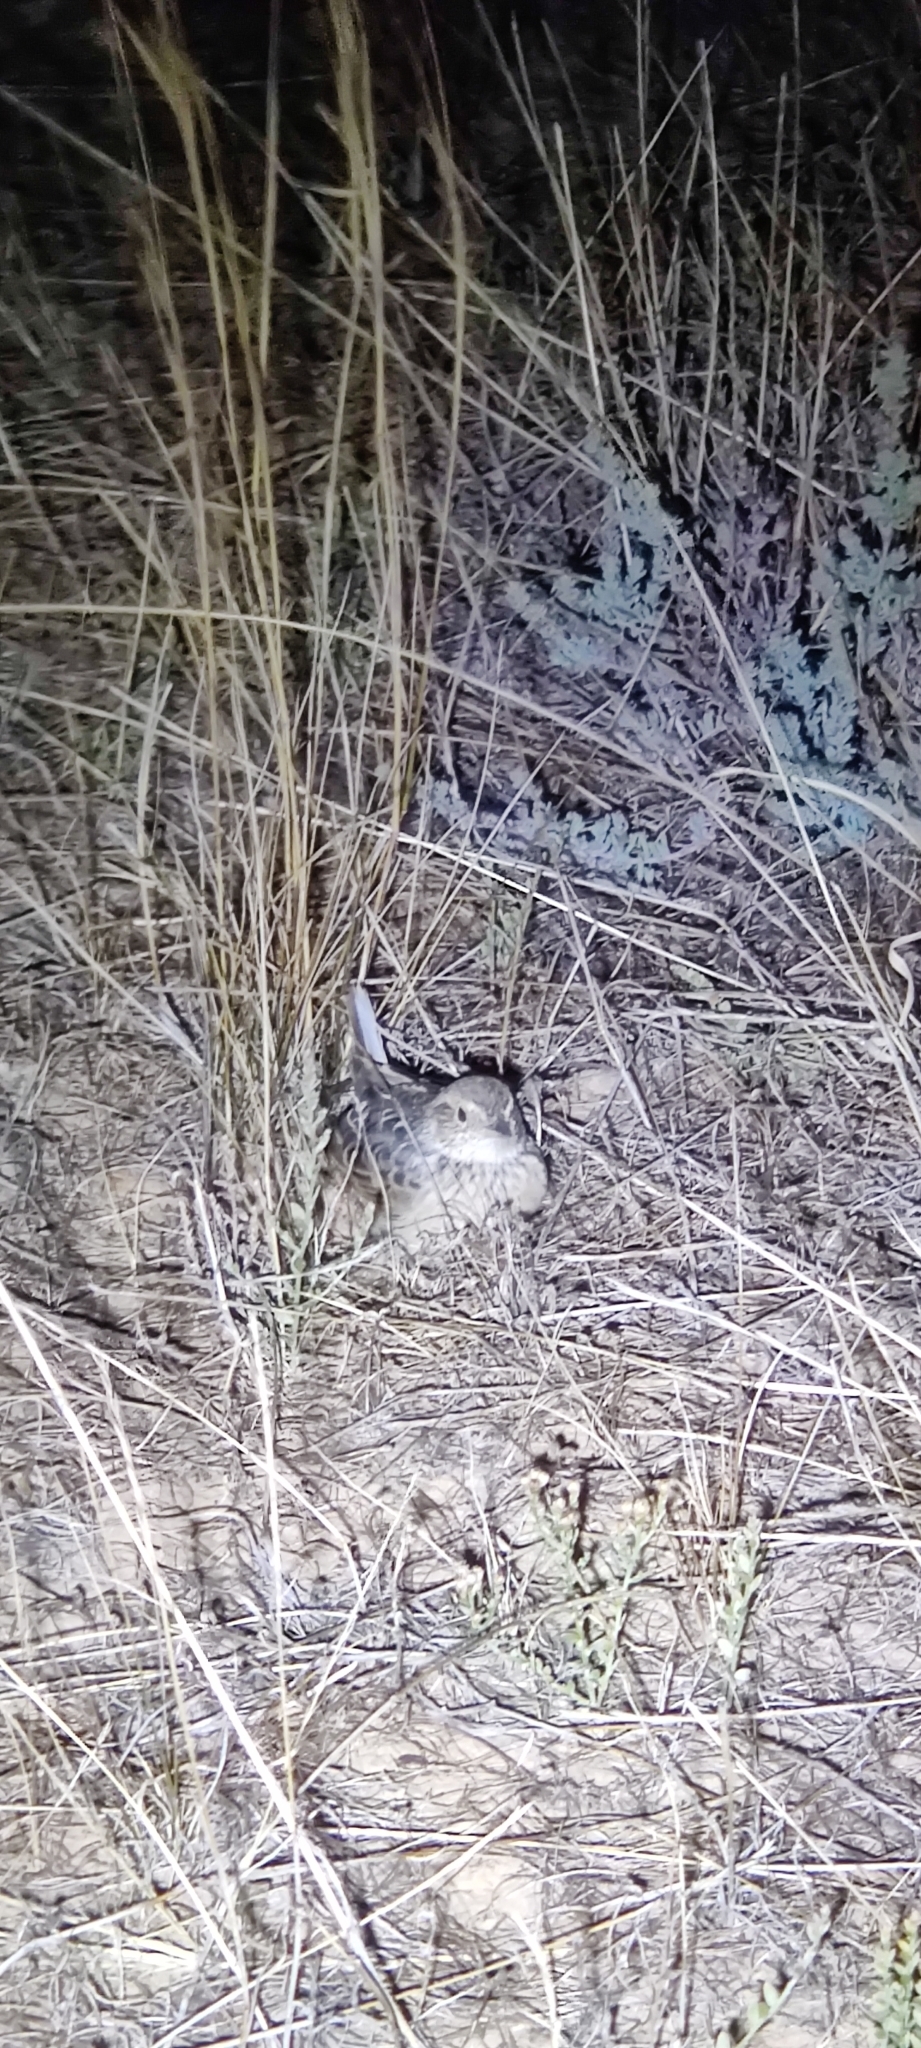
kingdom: Animalia
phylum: Chordata
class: Aves
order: Passeriformes
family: Alaudidae
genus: Mirafra
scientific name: Mirafra javanica
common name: Horsfield's bush lark
